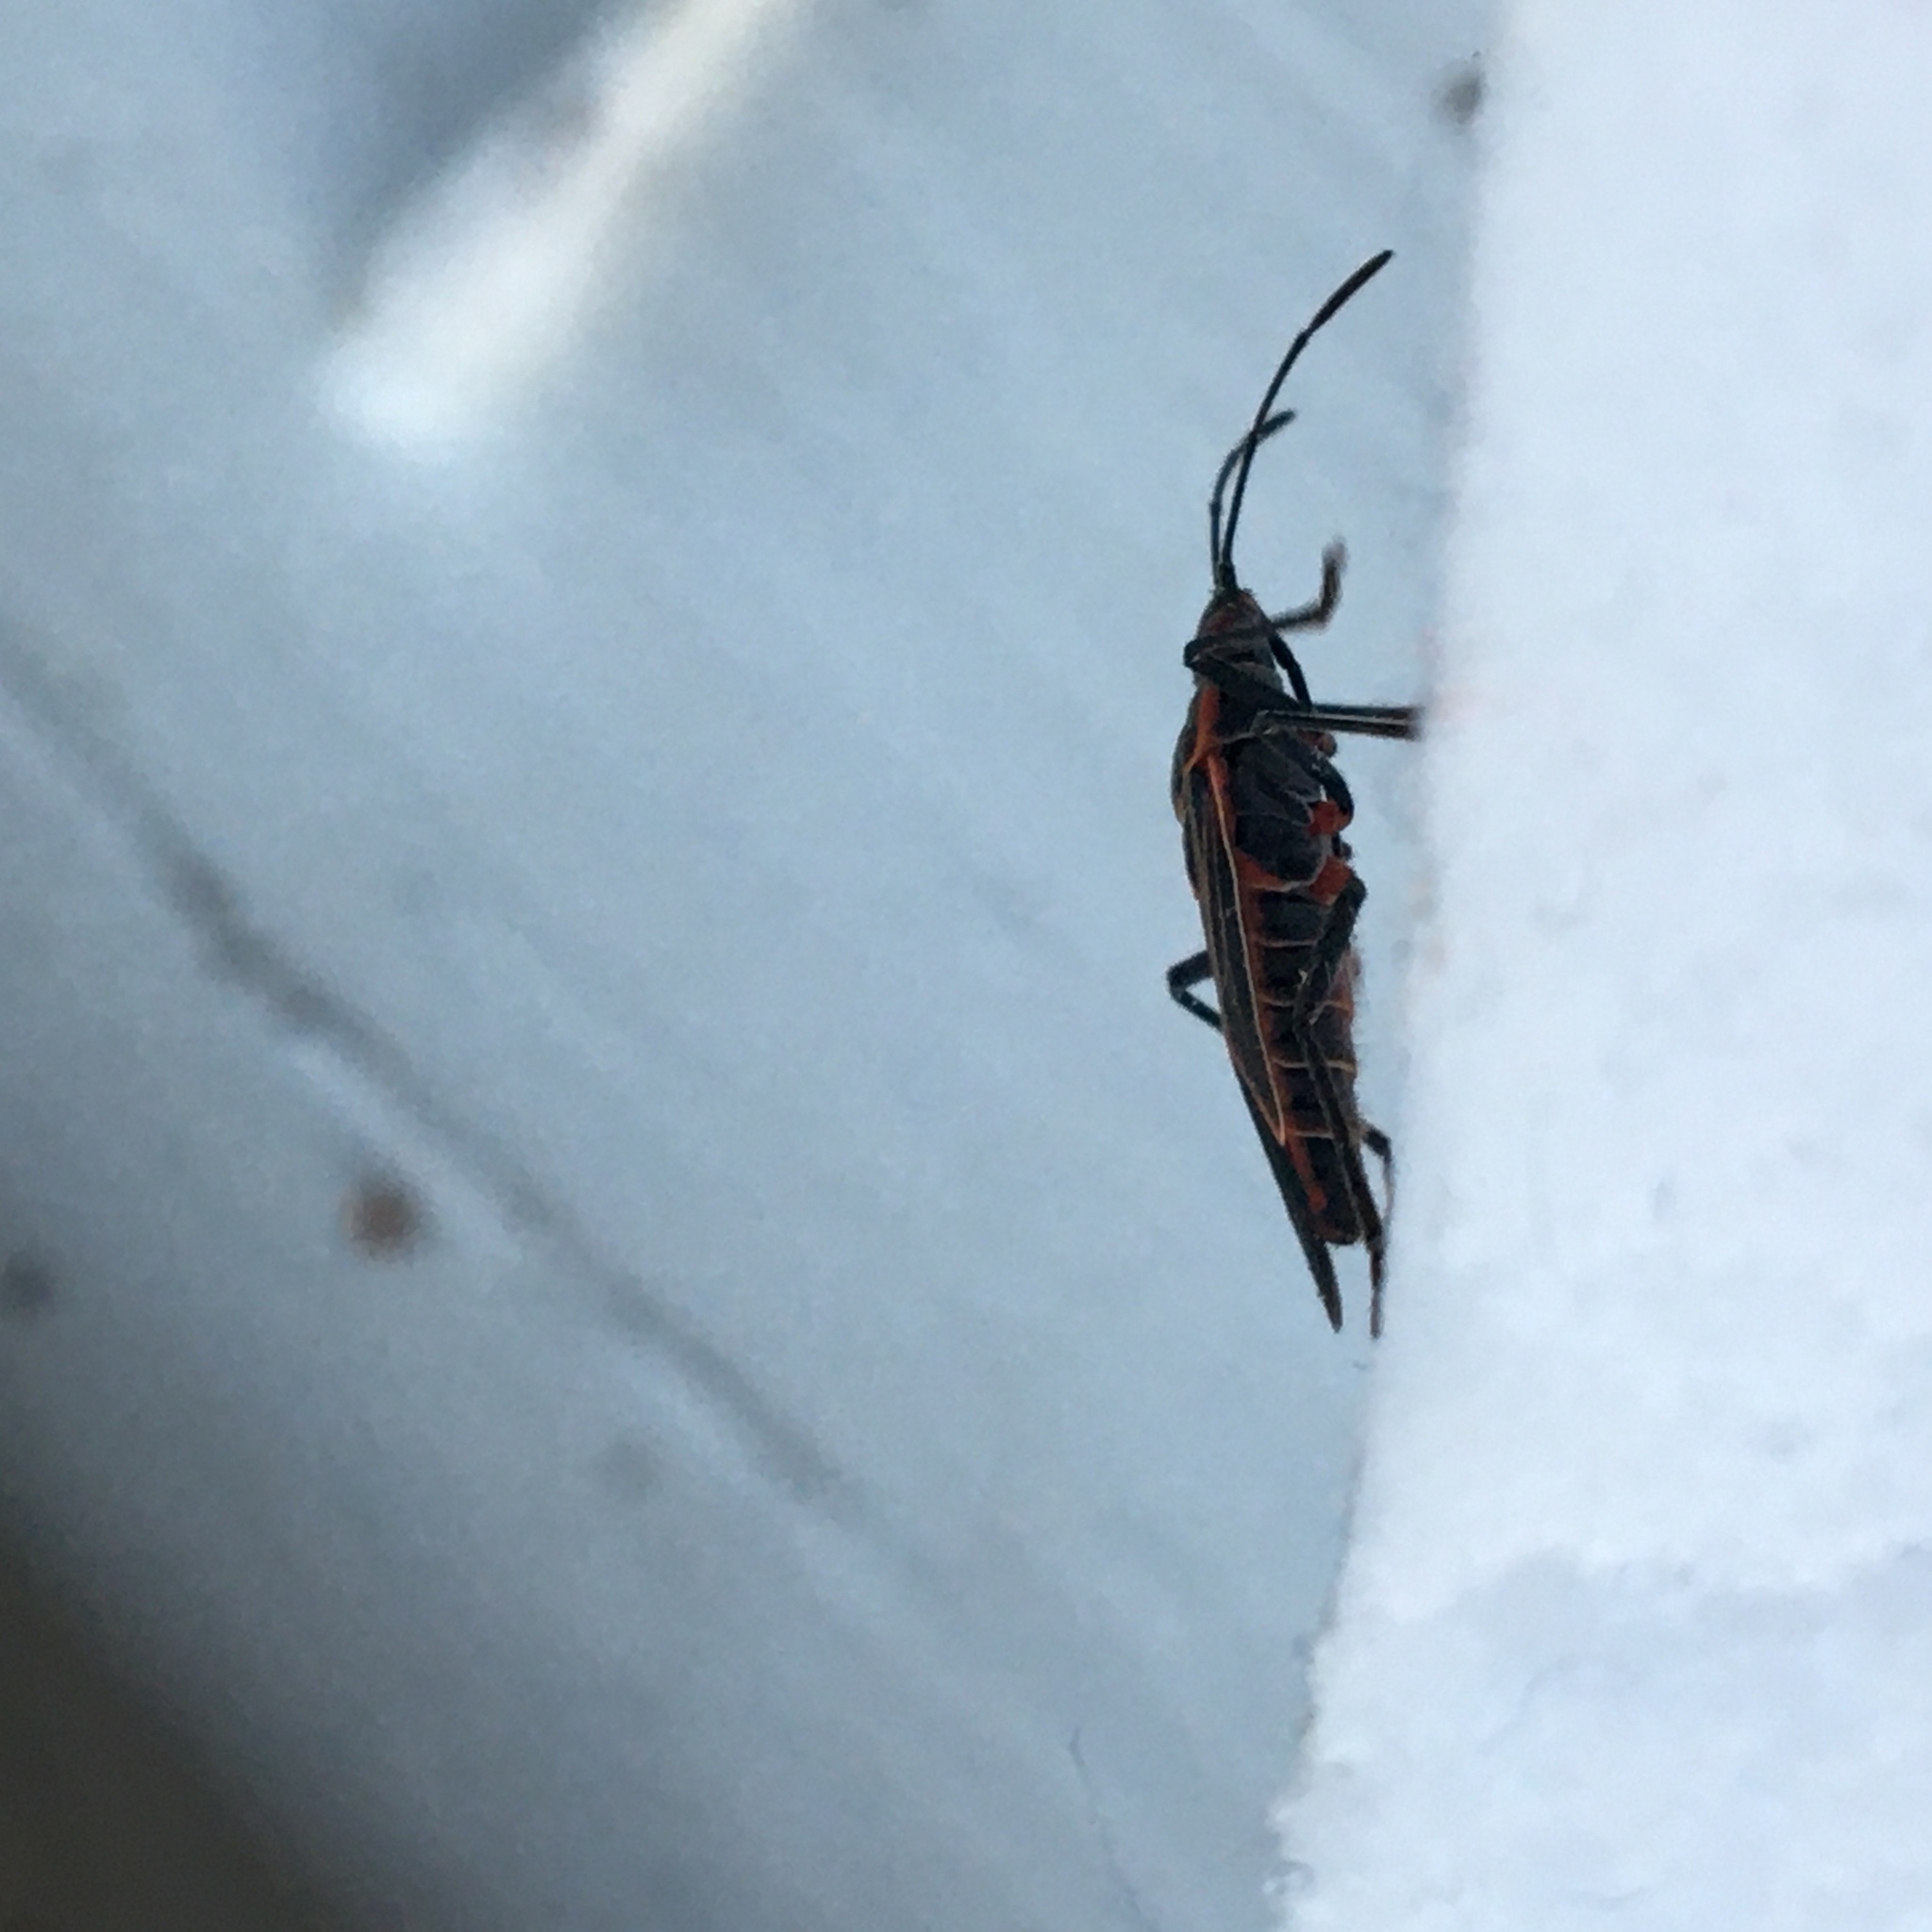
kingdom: Animalia
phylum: Arthropoda
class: Insecta
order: Hemiptera
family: Rhopalidae
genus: Boisea
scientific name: Boisea rubrolineata
